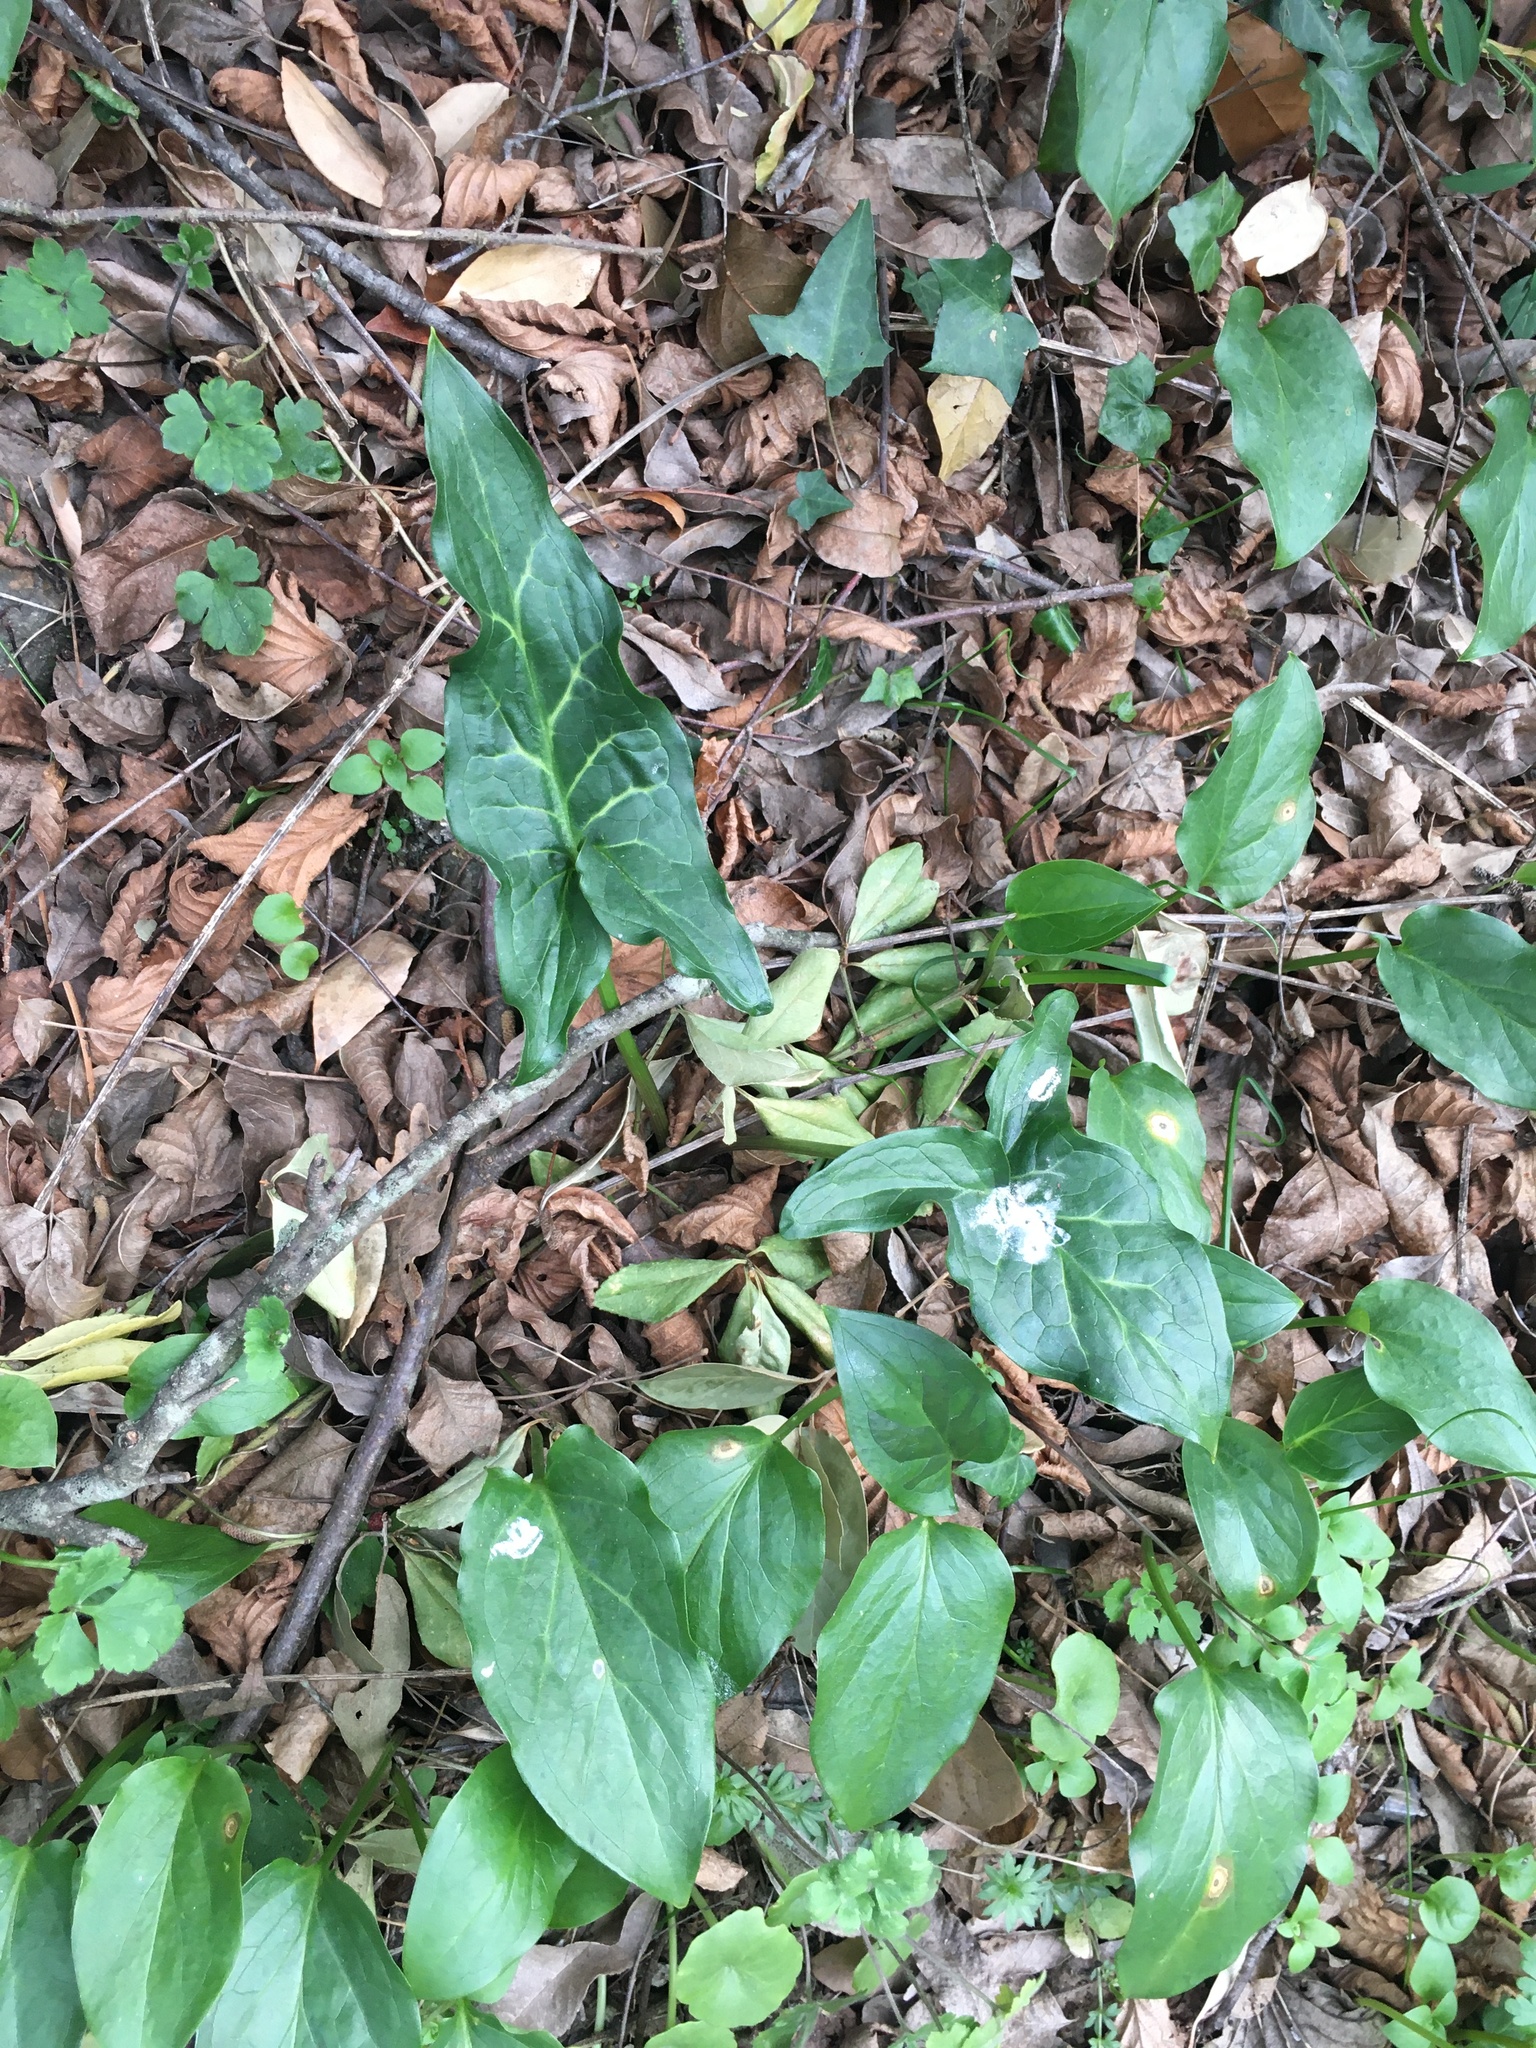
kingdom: Plantae
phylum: Tracheophyta
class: Liliopsida
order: Alismatales
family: Araceae
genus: Arum
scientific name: Arum italicum
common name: Italian lords-and-ladies
